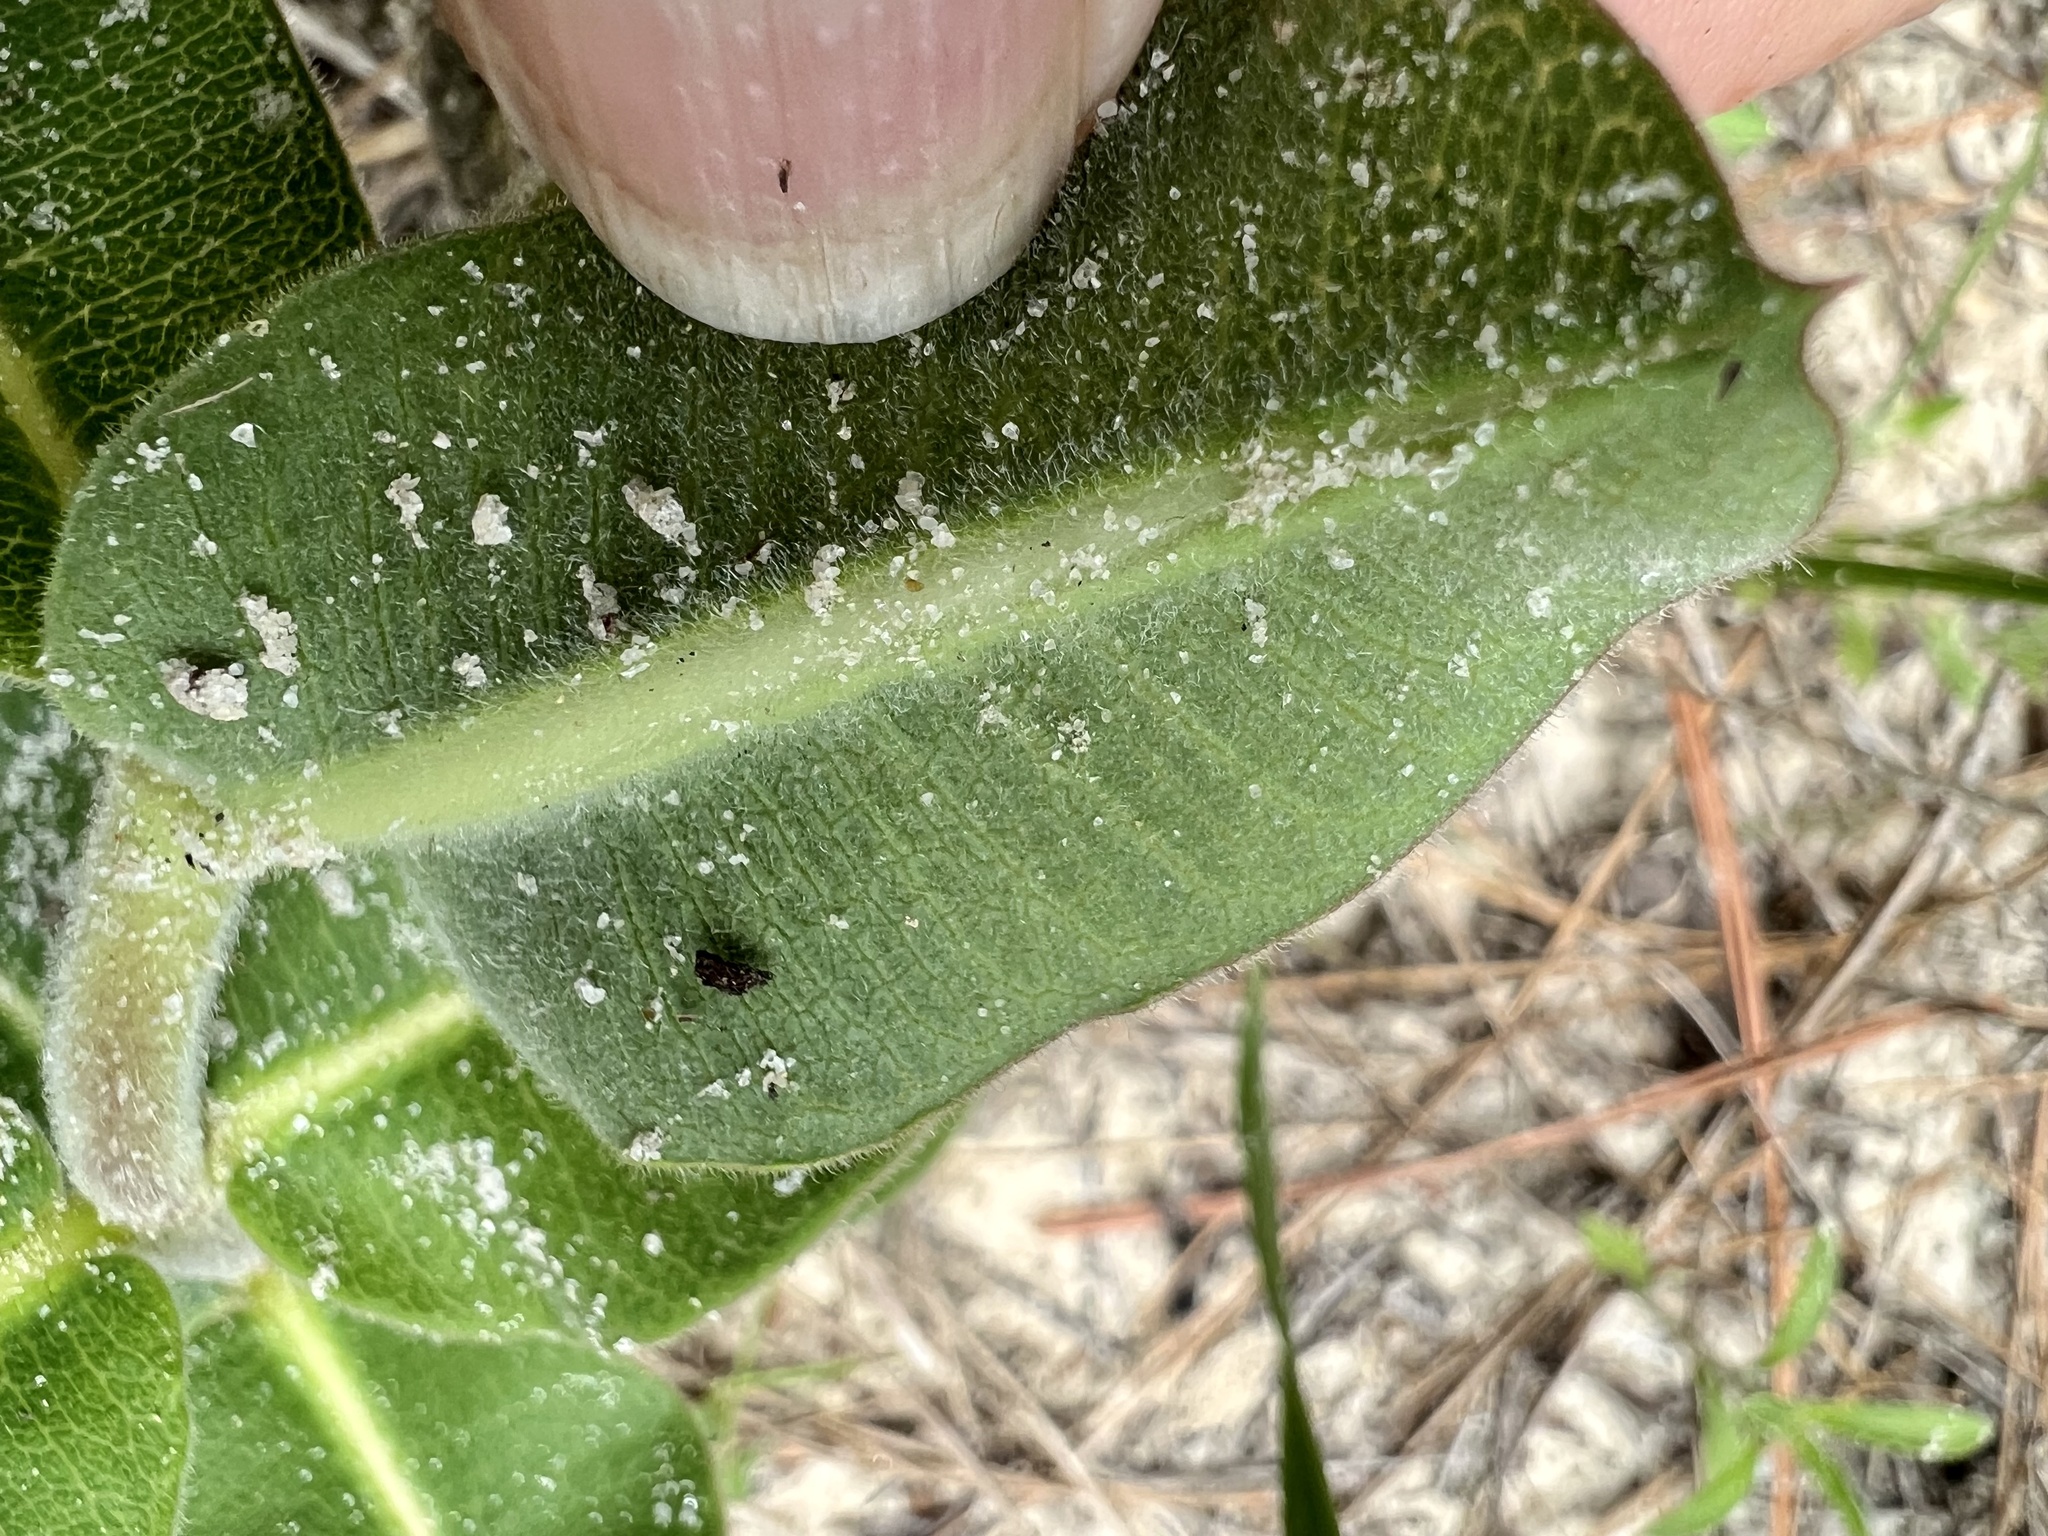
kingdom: Plantae
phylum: Tracheophyta
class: Magnoliopsida
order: Gentianales
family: Apocynaceae
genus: Asclepias
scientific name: Asclepias obovata
